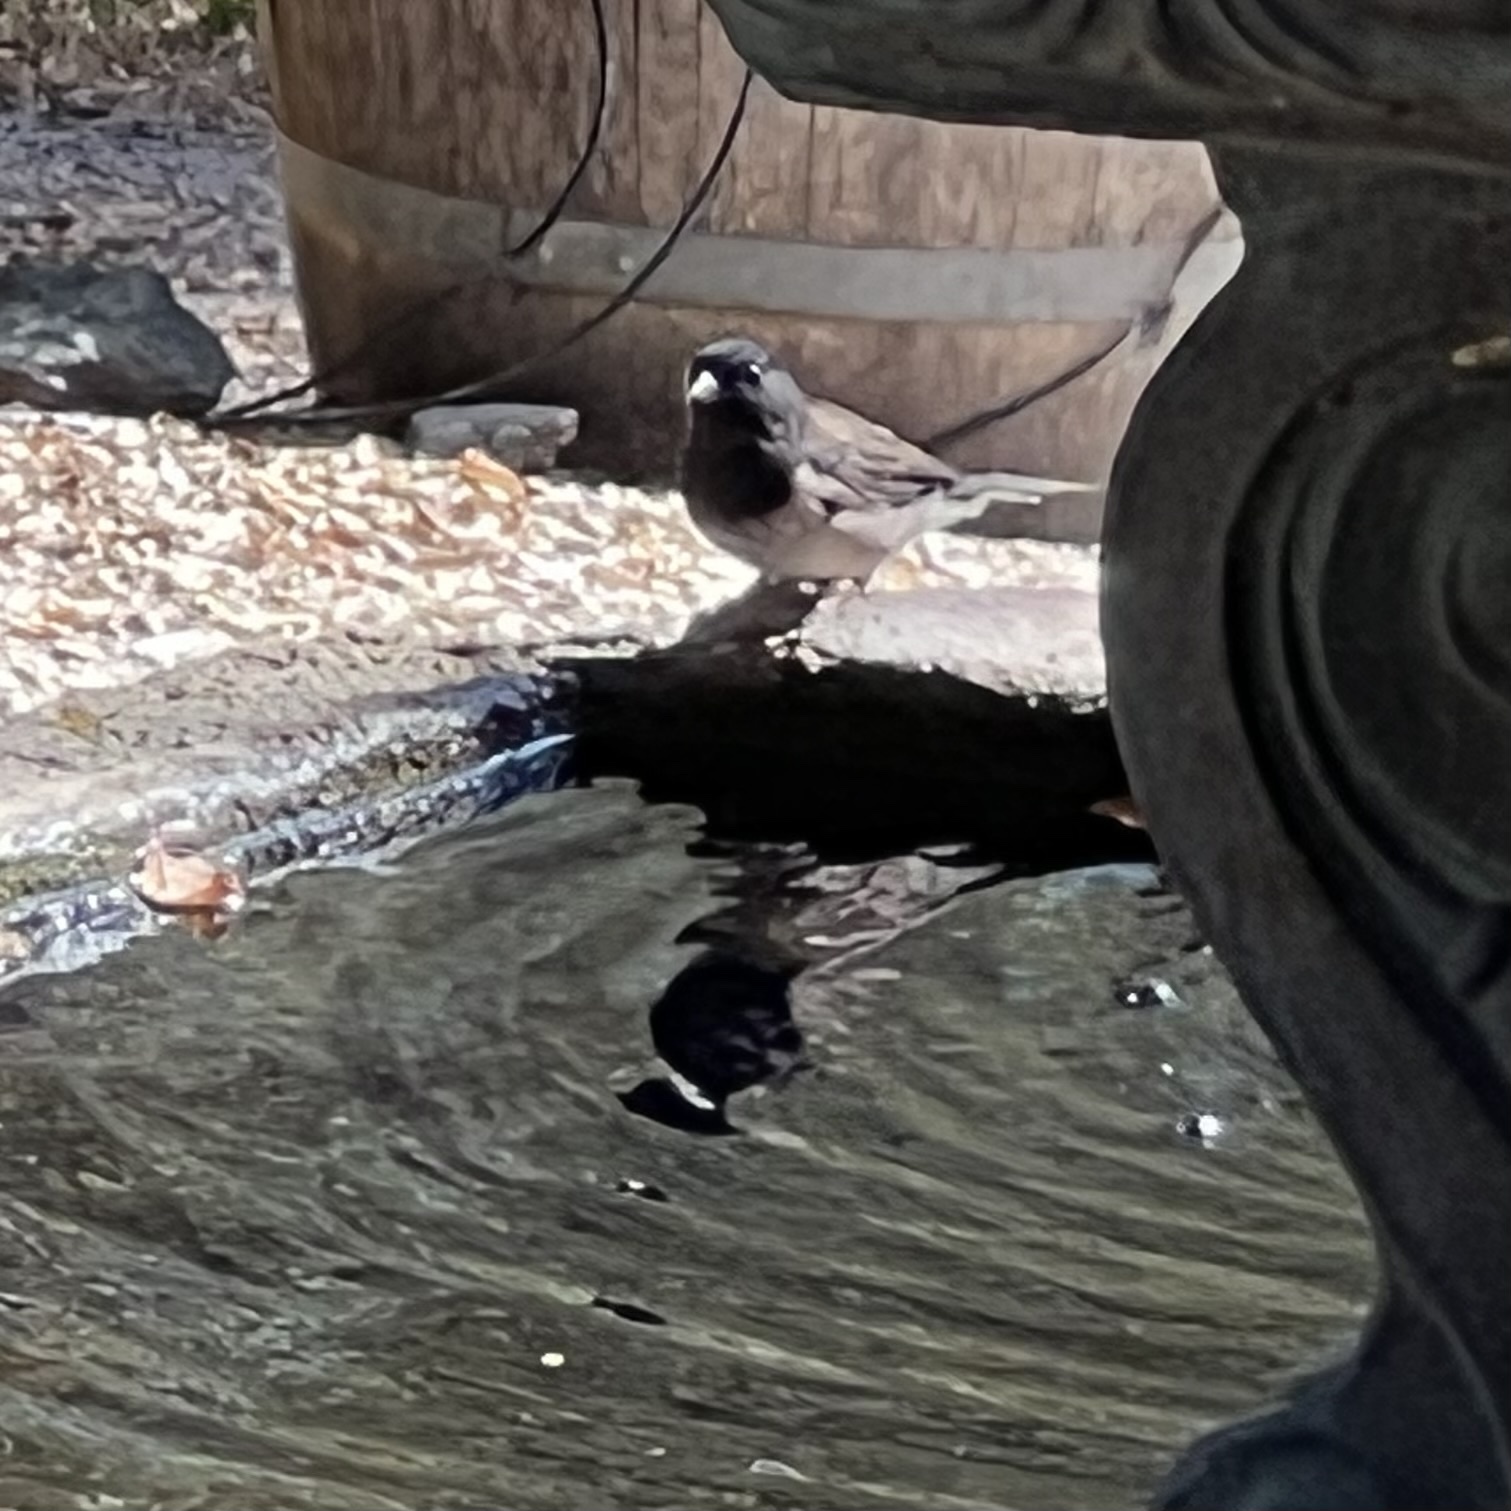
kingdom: Animalia
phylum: Chordata
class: Aves
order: Passeriformes
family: Passerellidae
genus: Junco
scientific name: Junco hyemalis
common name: Dark-eyed junco
